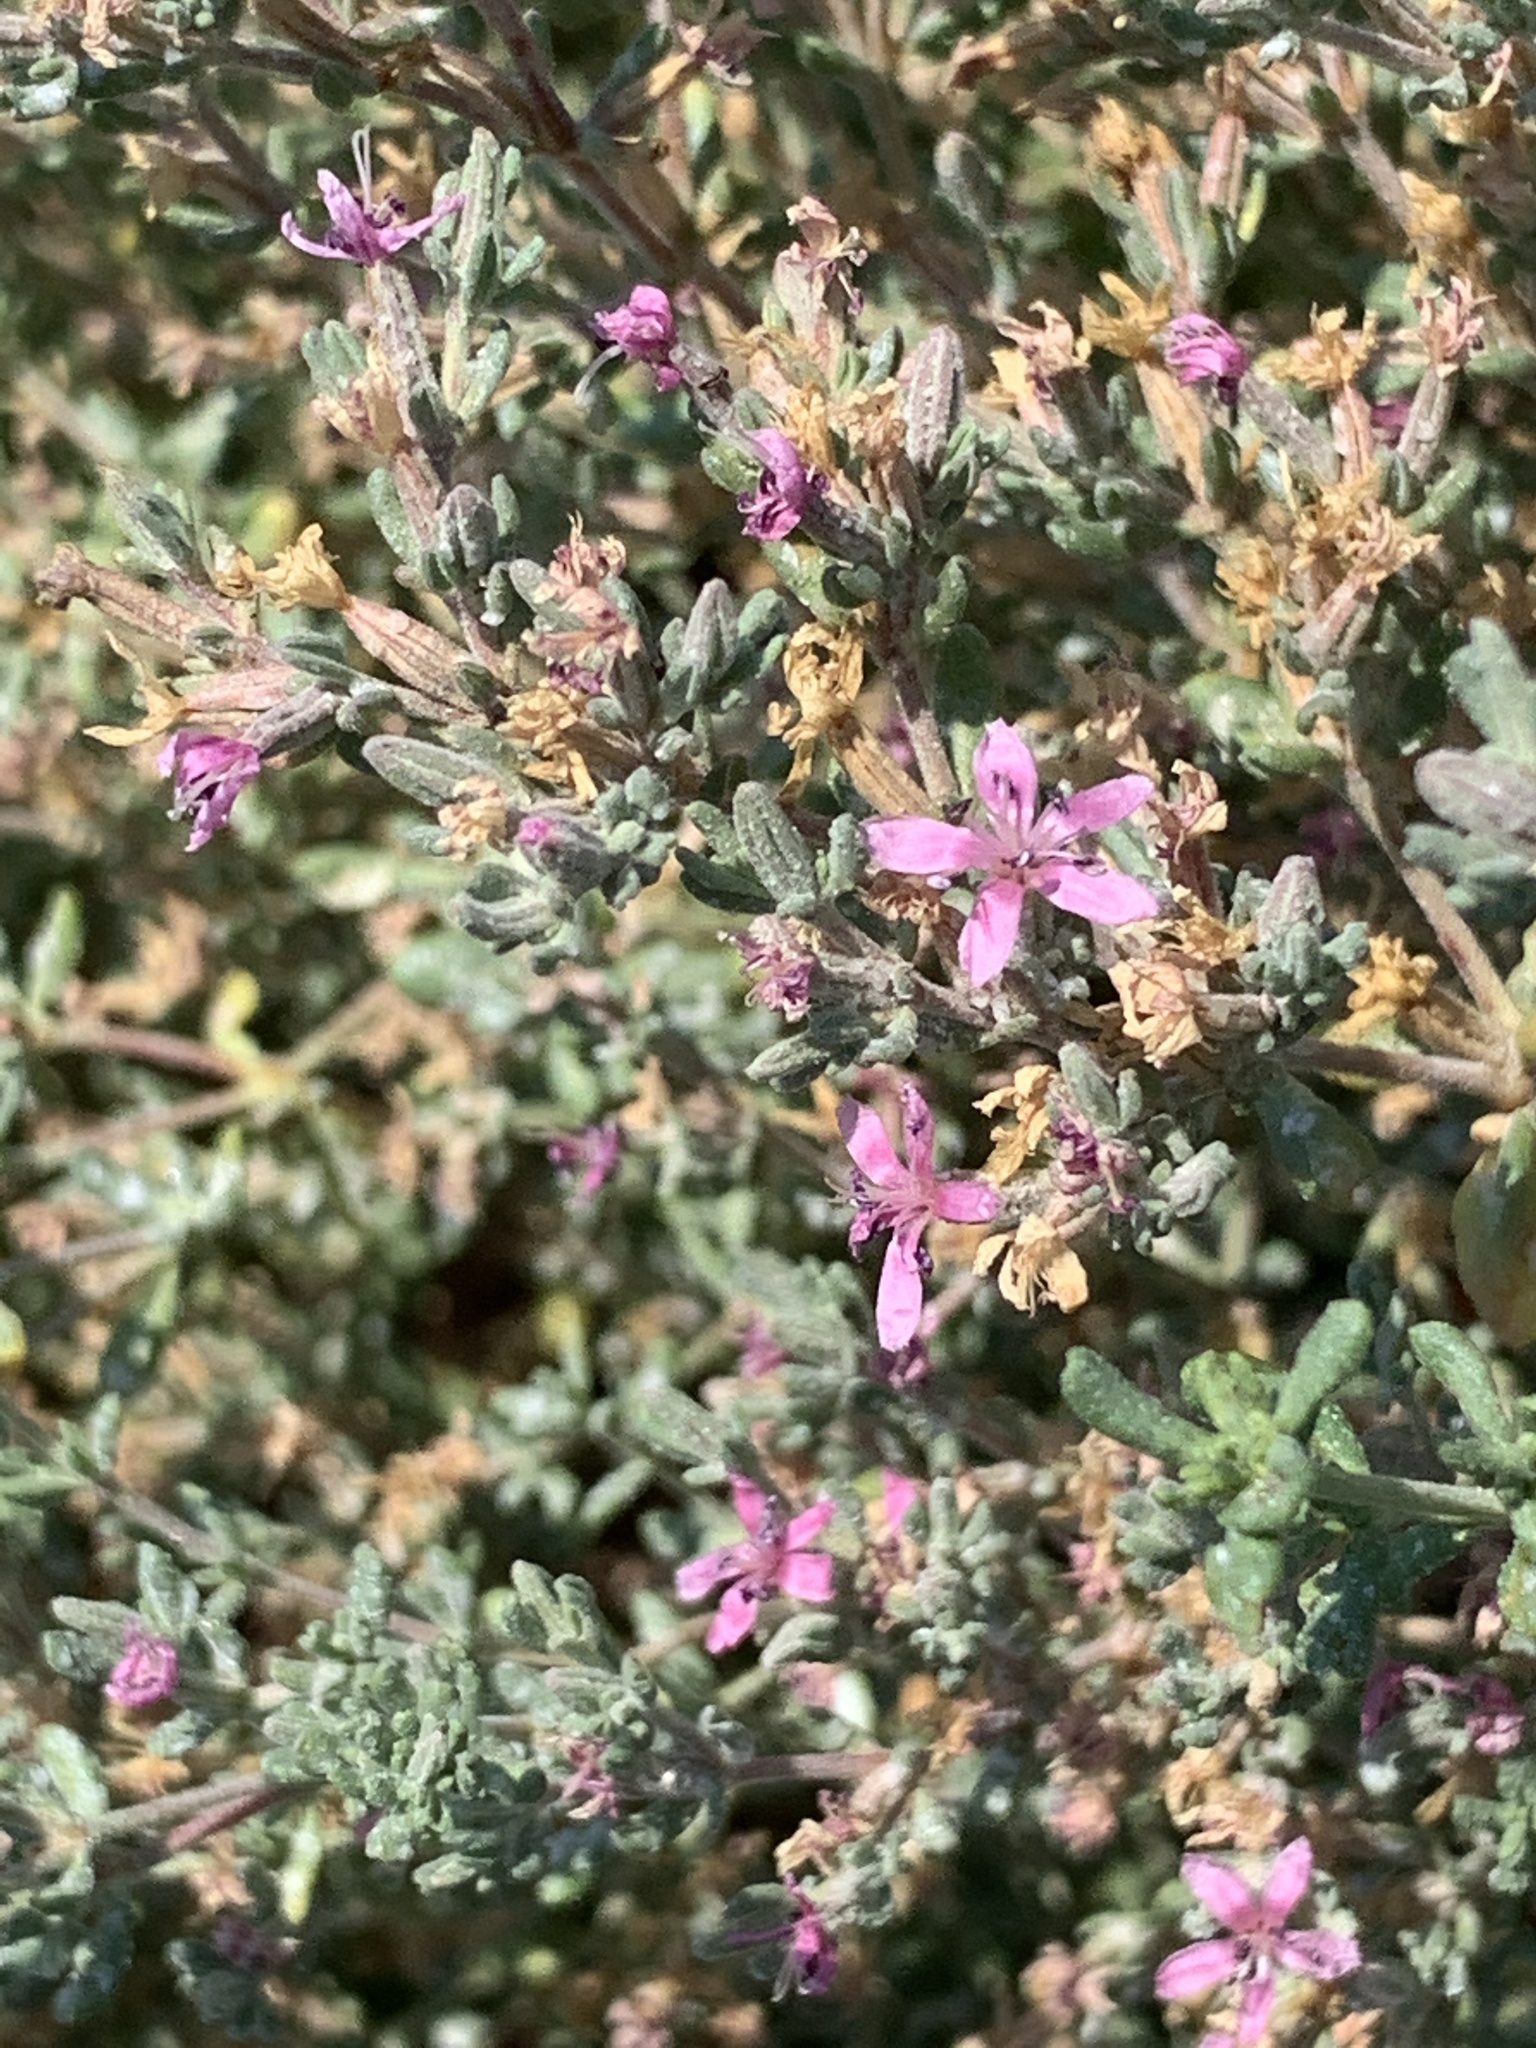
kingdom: Plantae
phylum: Tracheophyta
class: Magnoliopsida
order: Caryophyllales
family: Frankeniaceae
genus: Frankenia
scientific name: Frankenia salina
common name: Alkali seaheath
